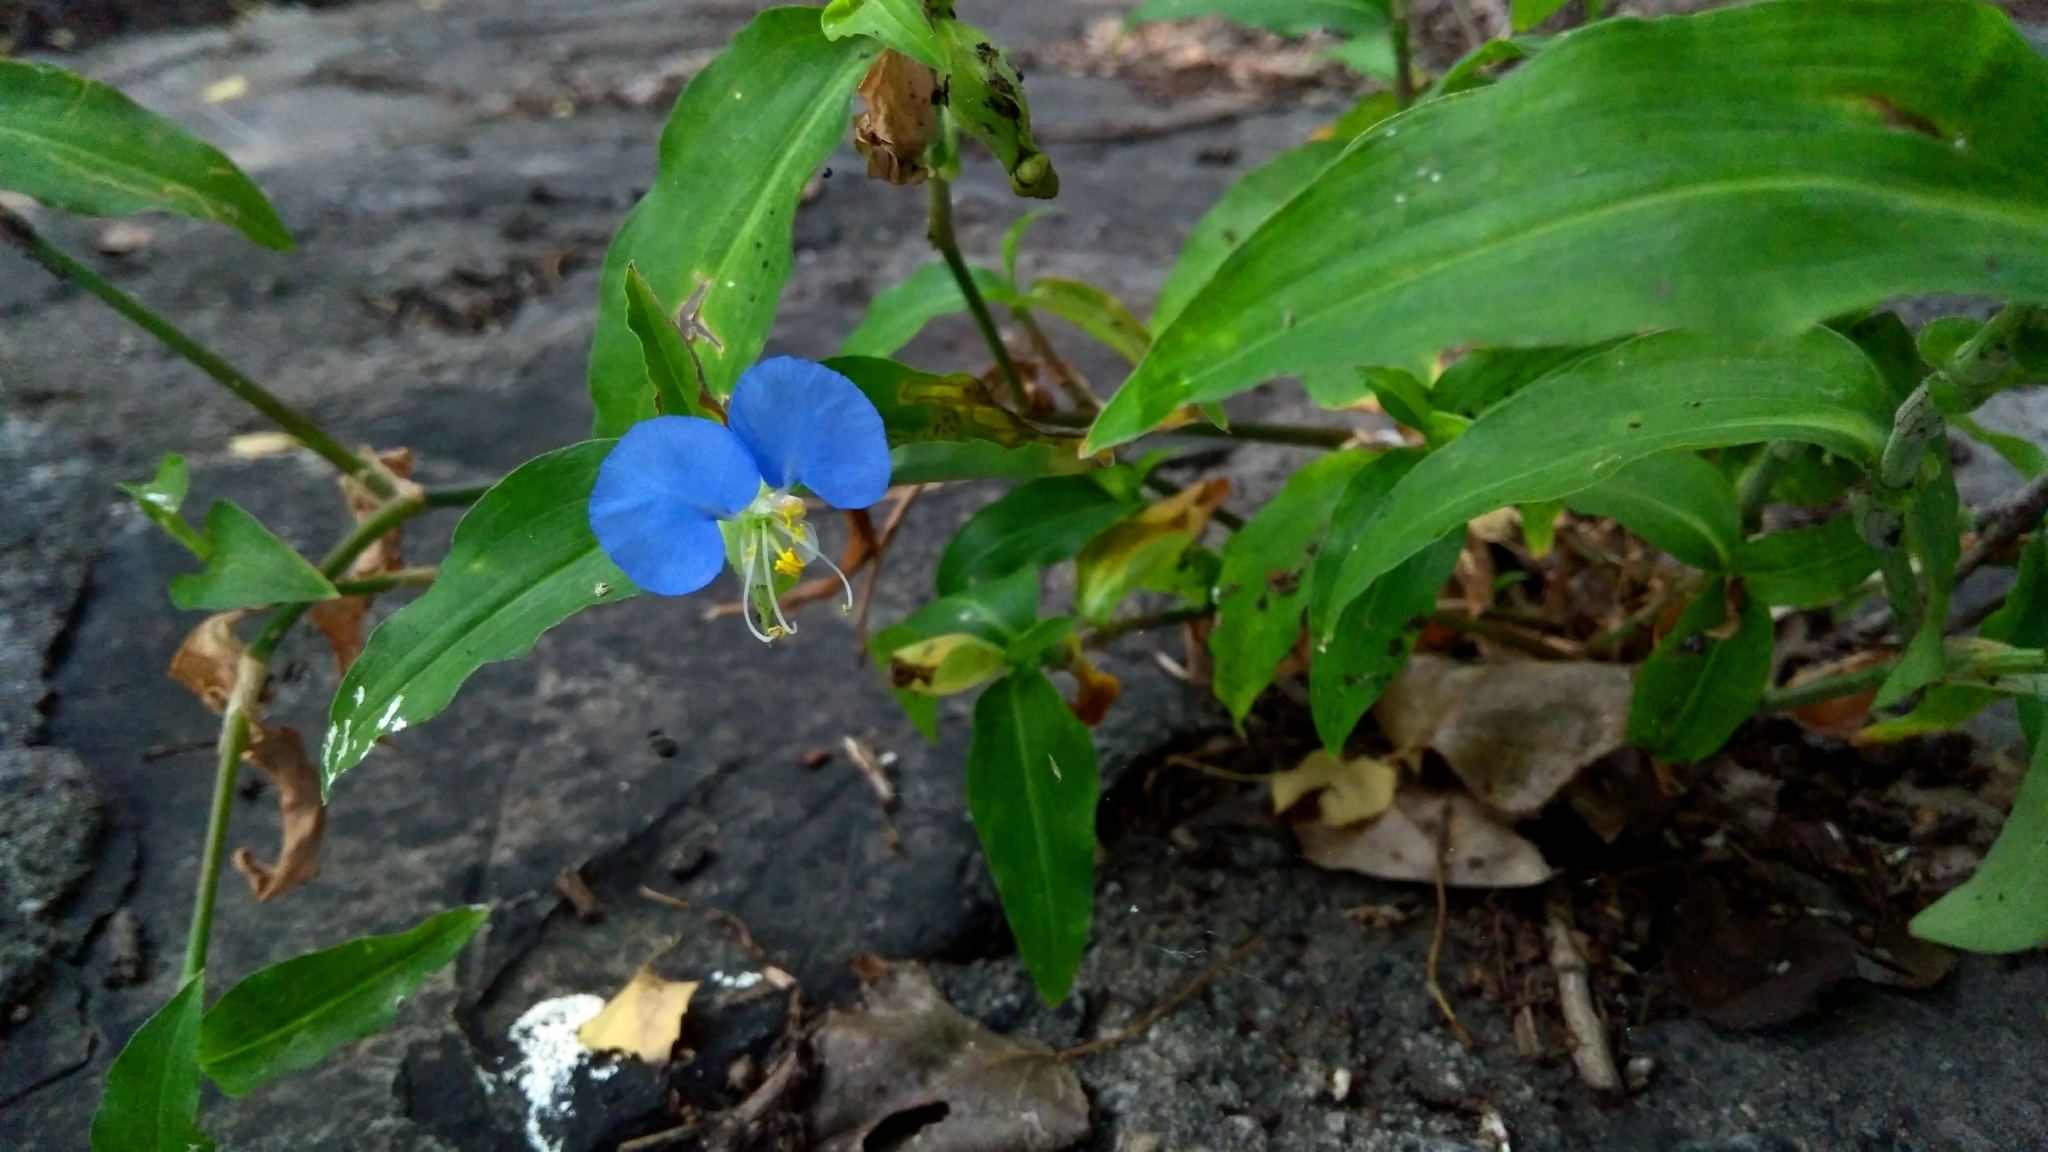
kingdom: Plantae
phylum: Tracheophyta
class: Liliopsida
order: Commelinales
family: Commelinaceae
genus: Commelina
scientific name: Commelina erecta
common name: Blousel blommetjie
